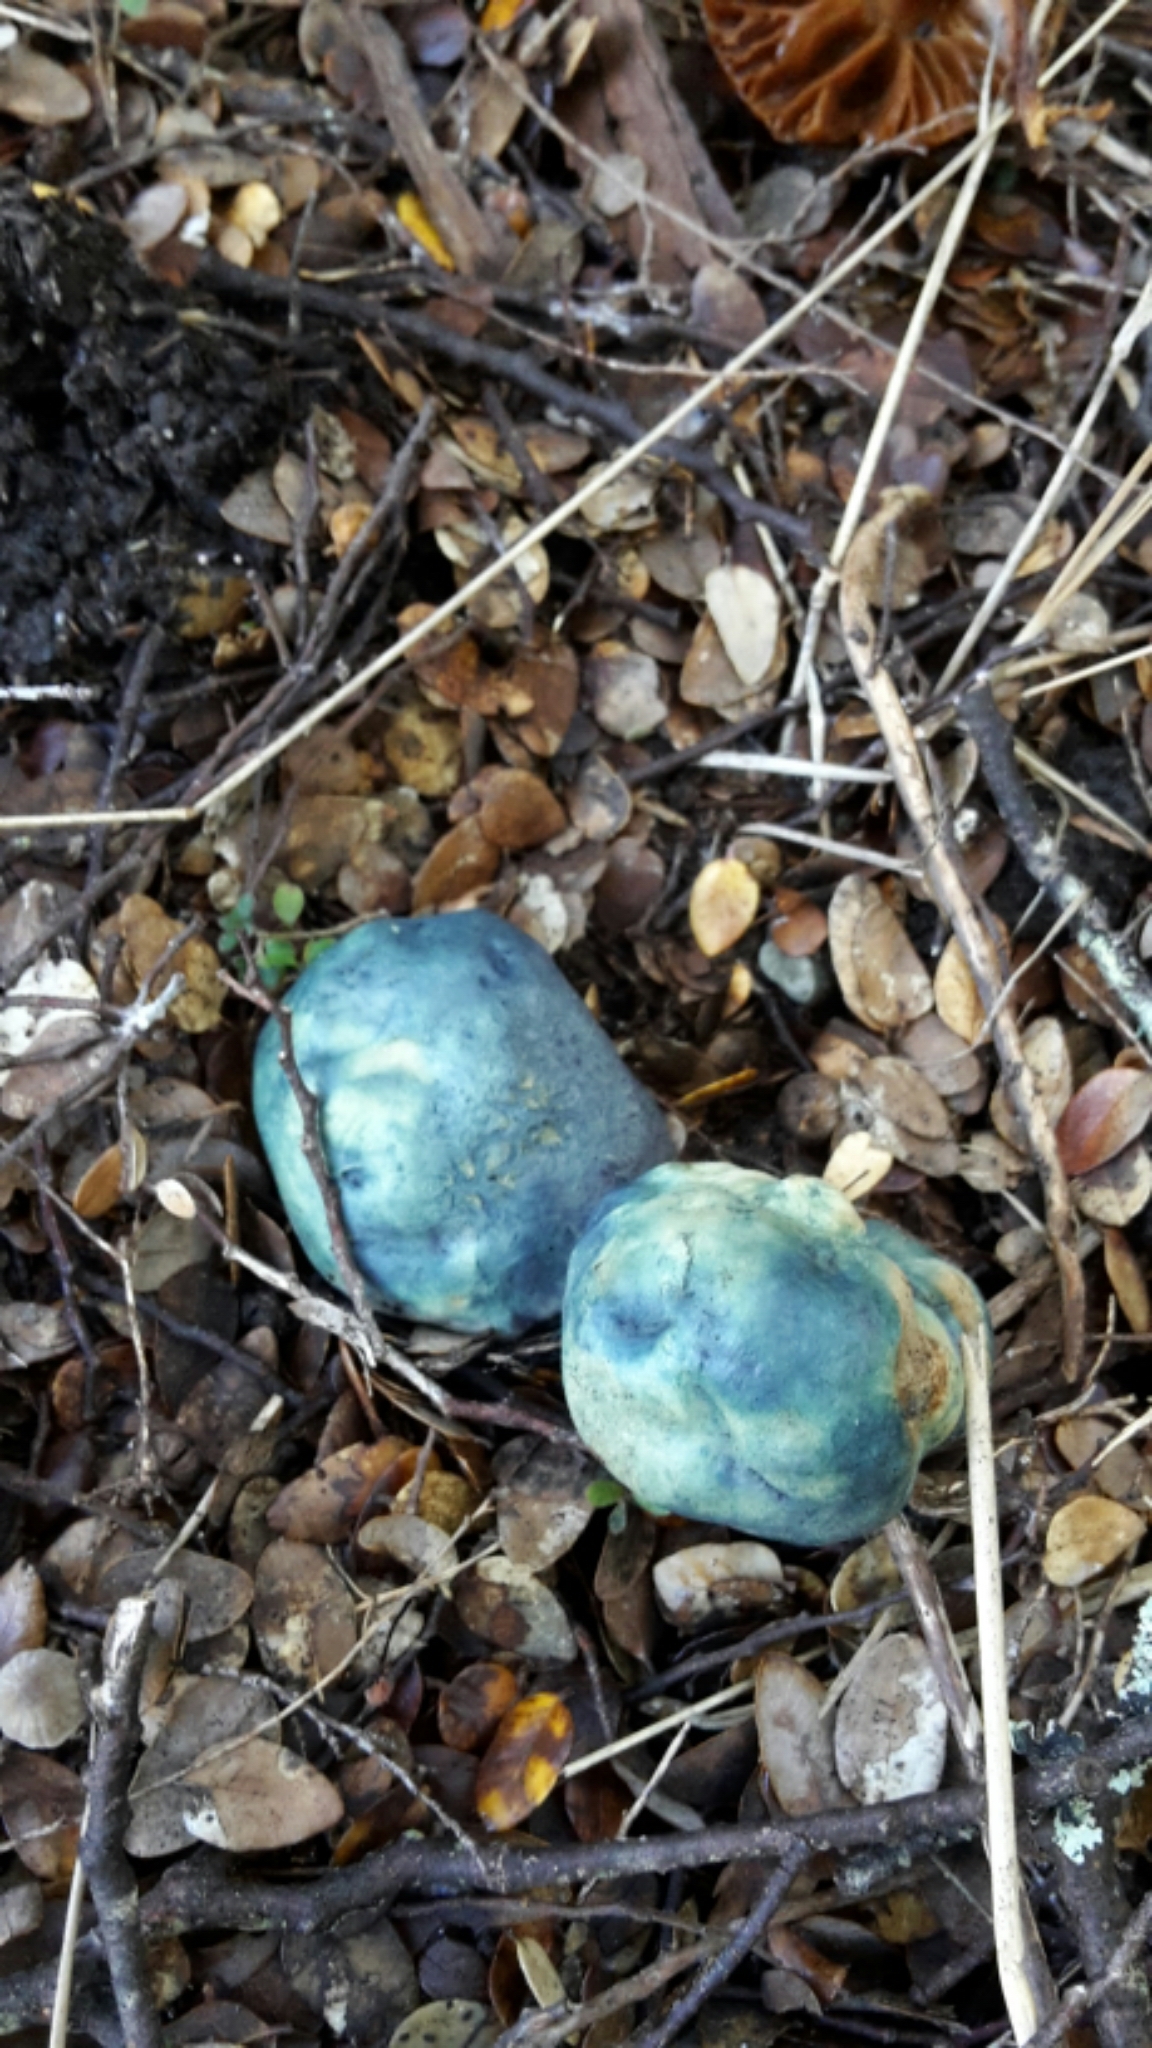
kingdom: Fungi
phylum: Basidiomycota
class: Agaricomycetes
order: Boletales
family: Boletaceae
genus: Leccinum
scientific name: Leccinum pachyderme
